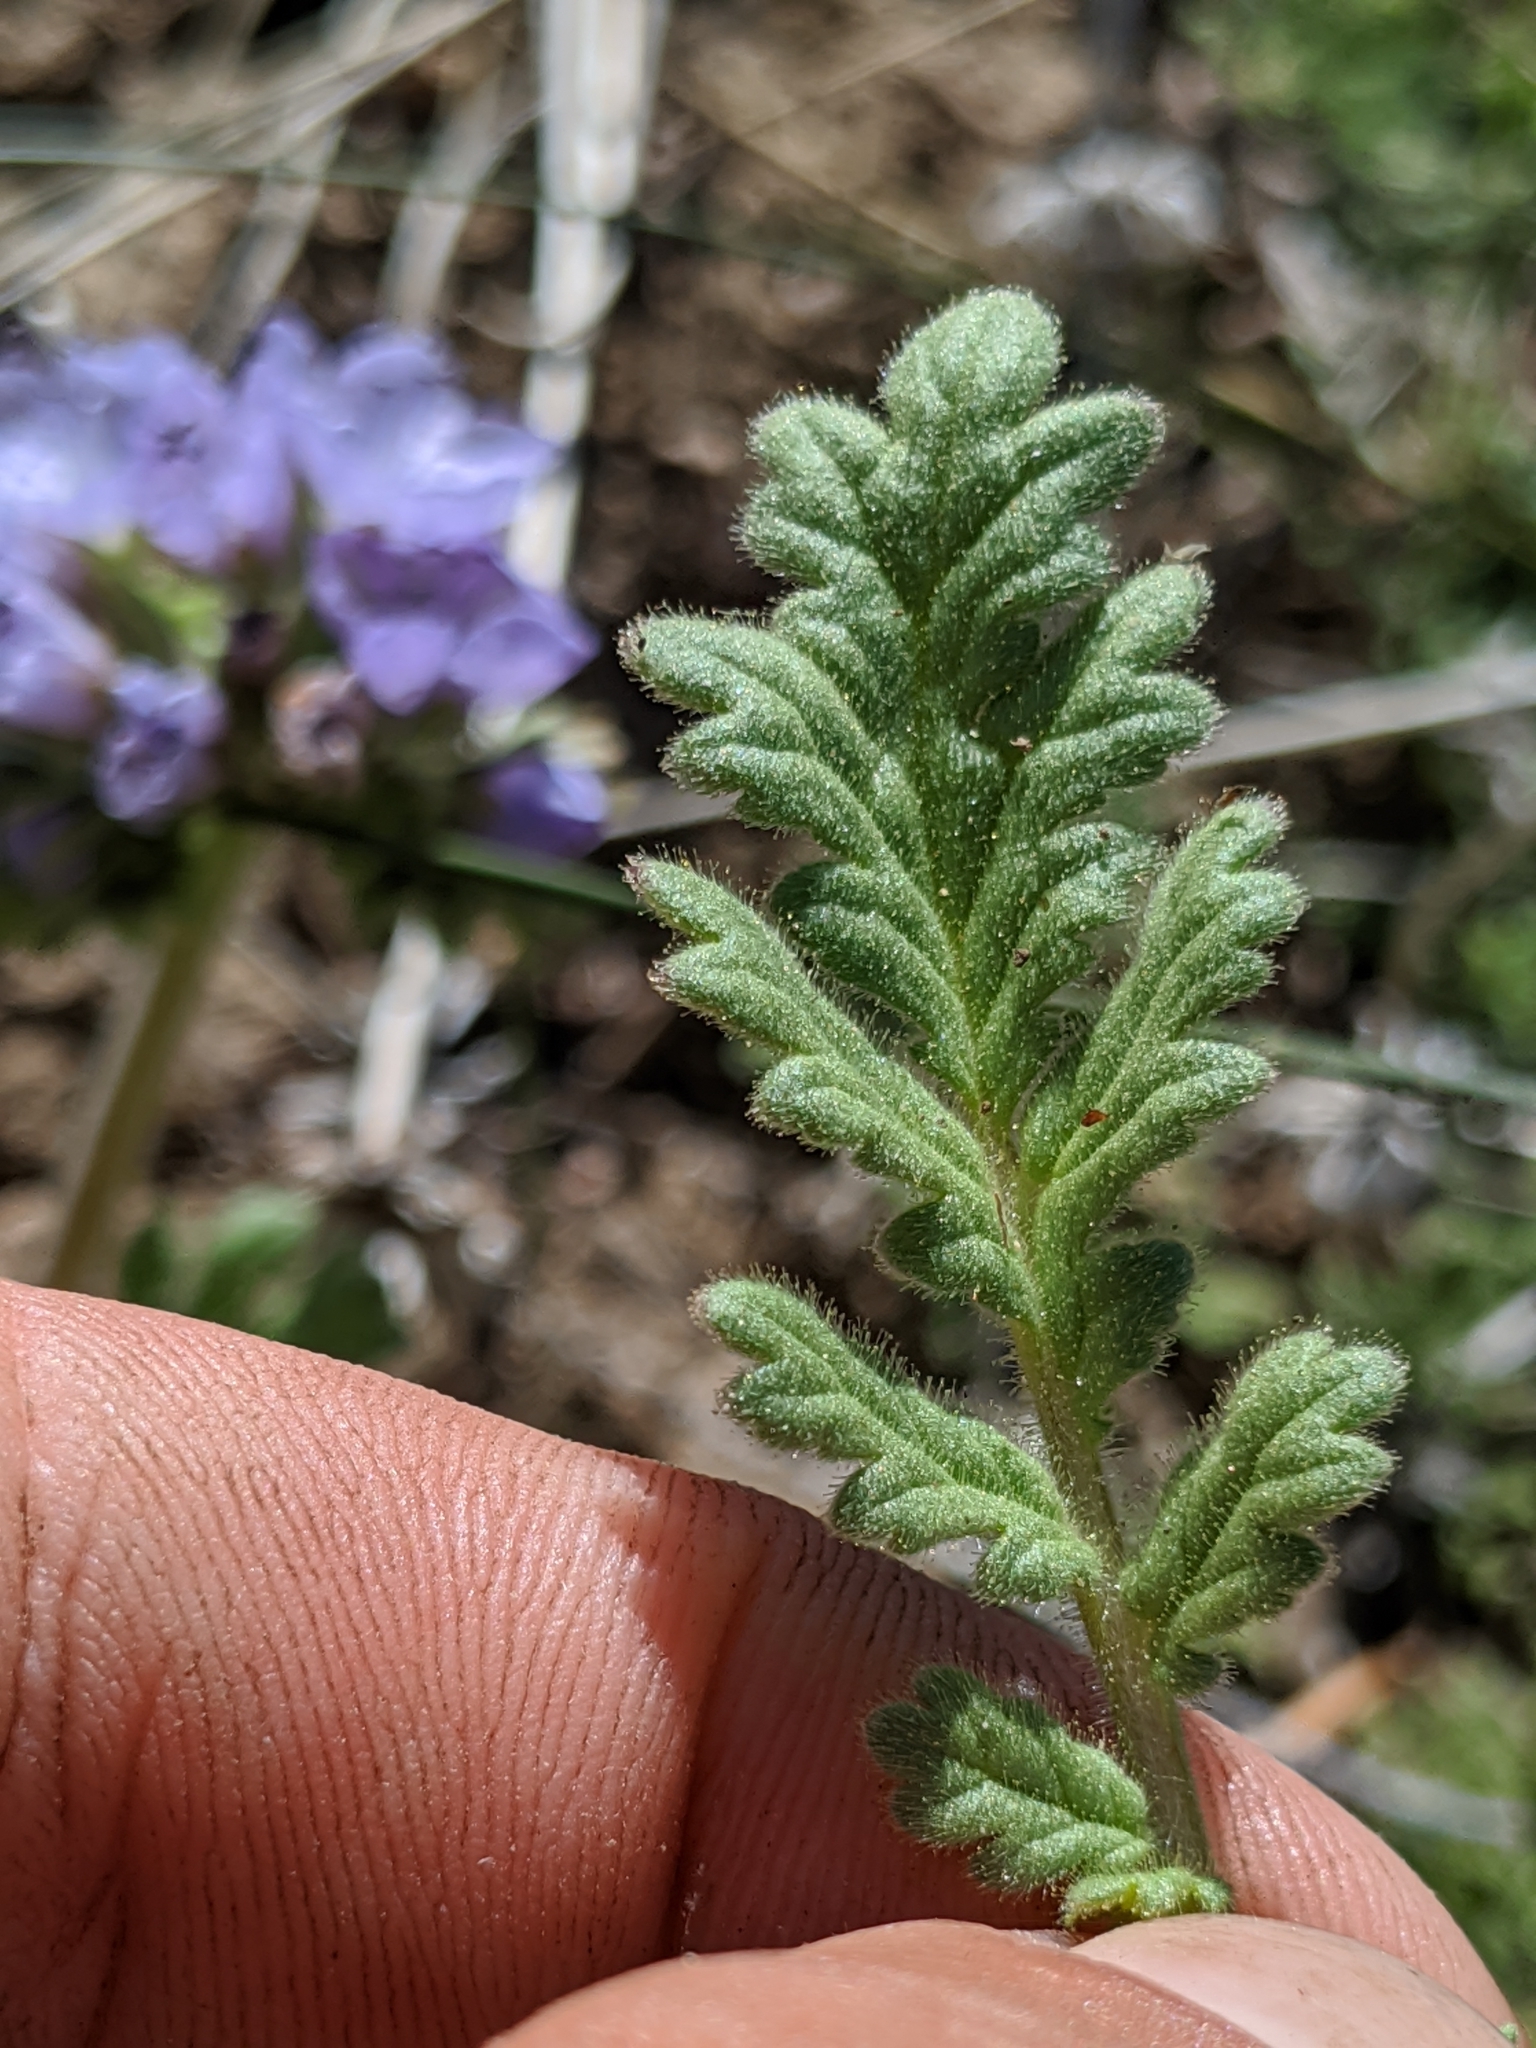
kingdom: Plantae
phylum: Tracheophyta
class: Magnoliopsida
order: Boraginales
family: Hydrophyllaceae
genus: Phacelia
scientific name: Phacelia ciliata
